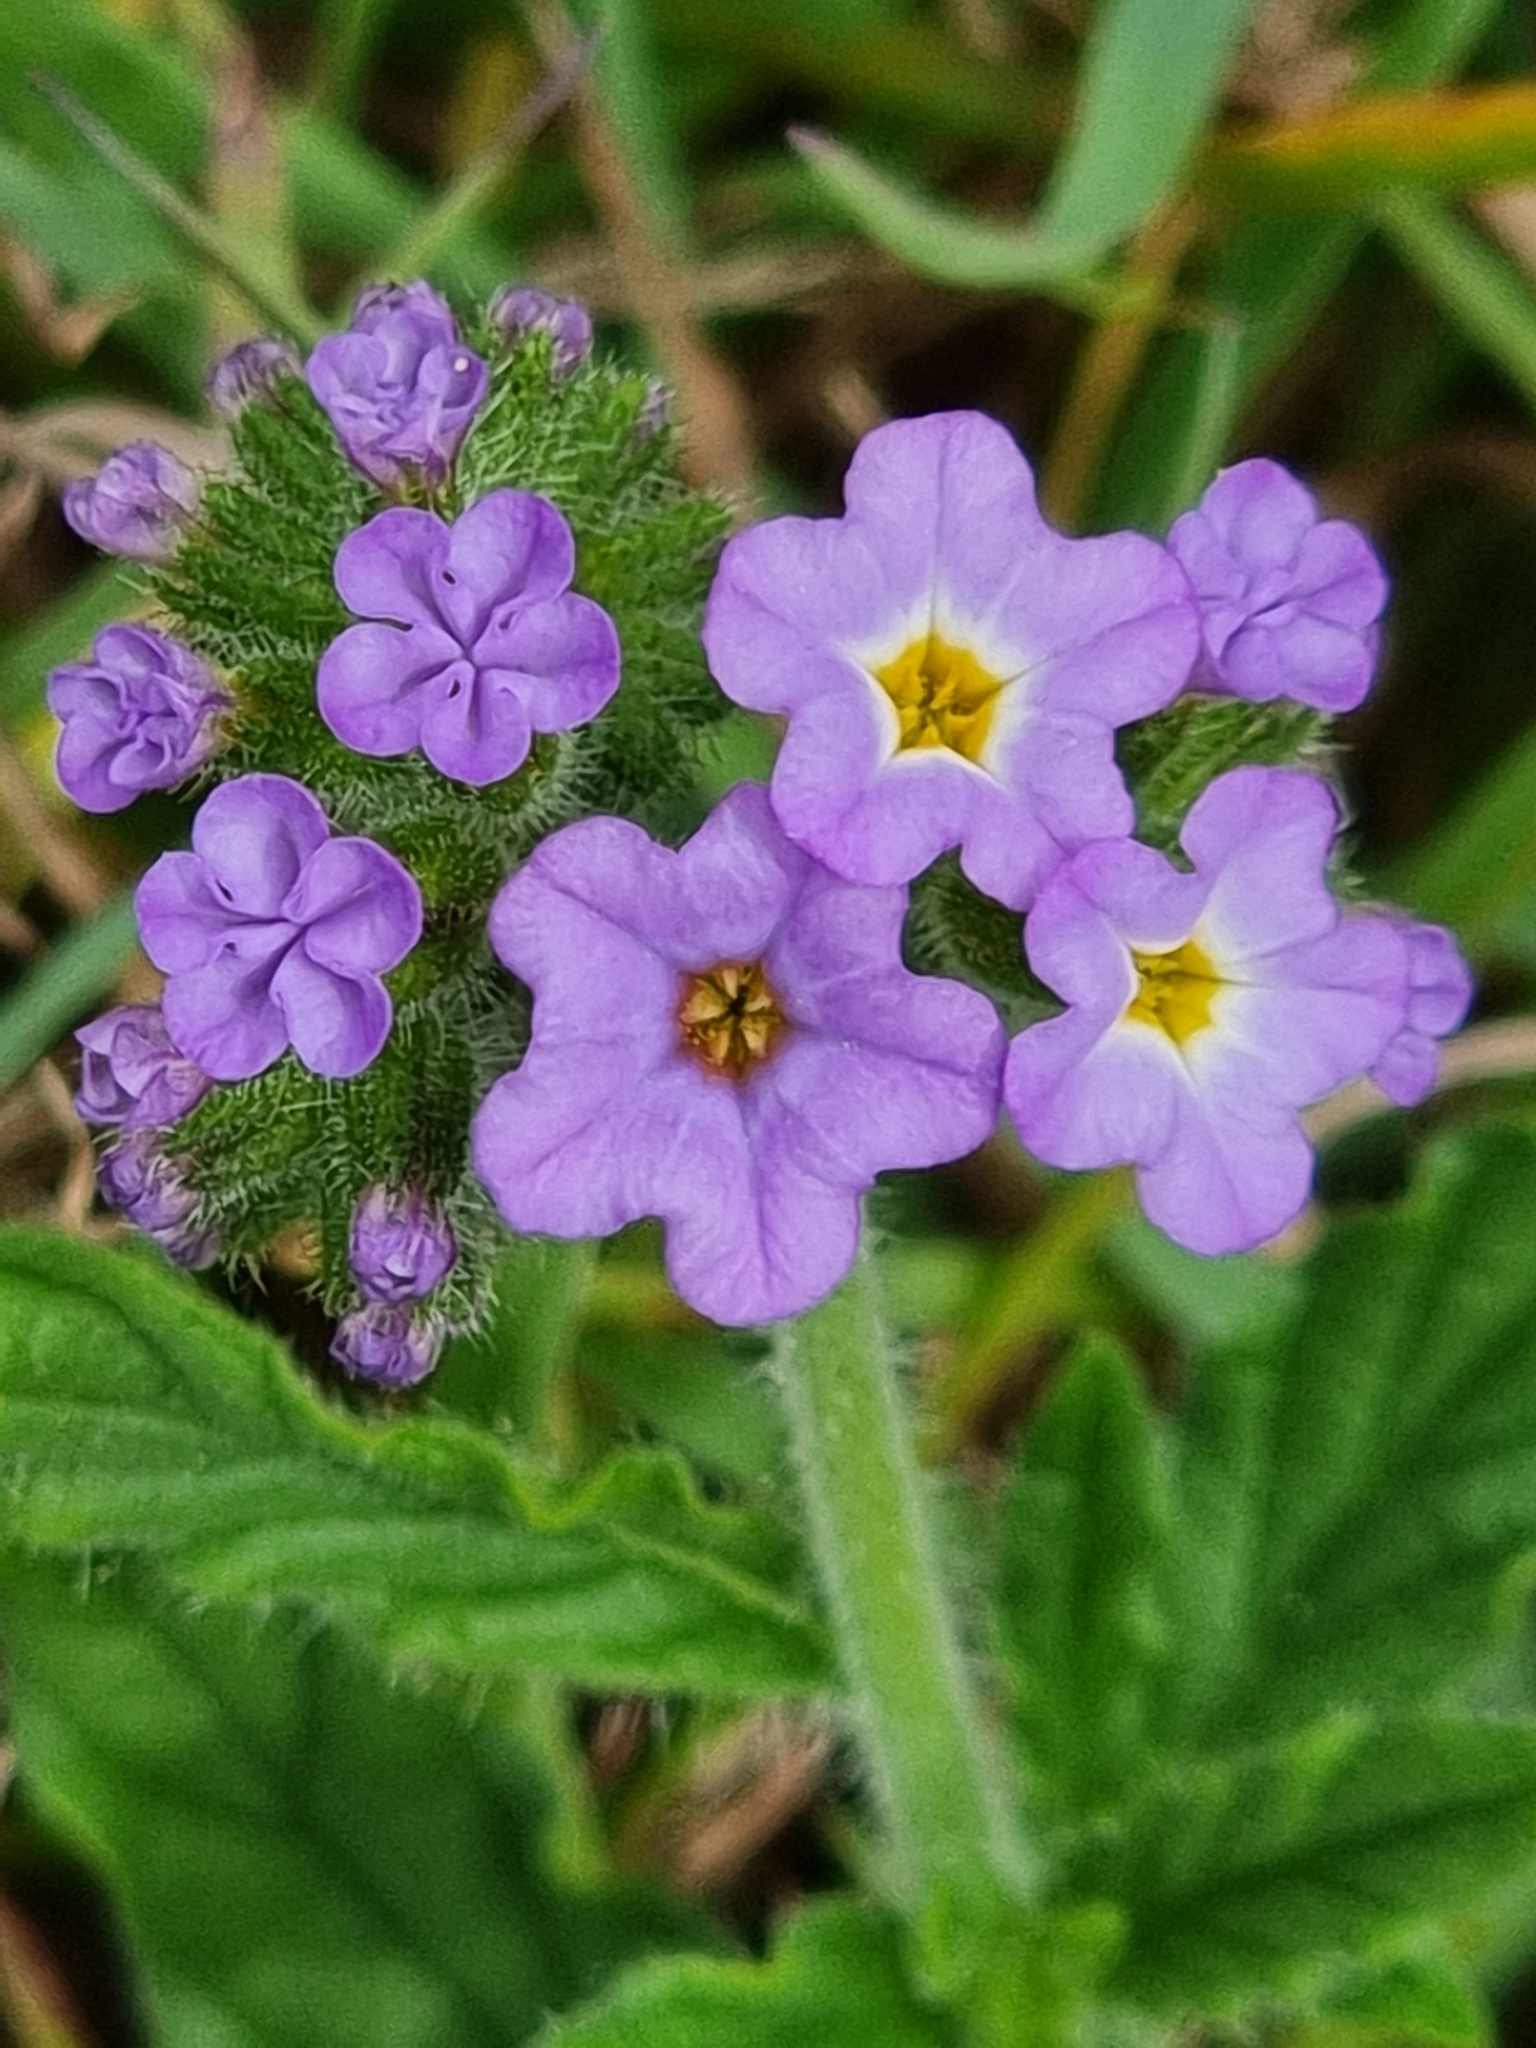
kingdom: Plantae
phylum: Tracheophyta
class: Magnoliopsida
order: Boraginales
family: Heliotropiaceae
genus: Heliotropium
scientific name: Heliotropium amplexicaule
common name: Clasping heliotrope
